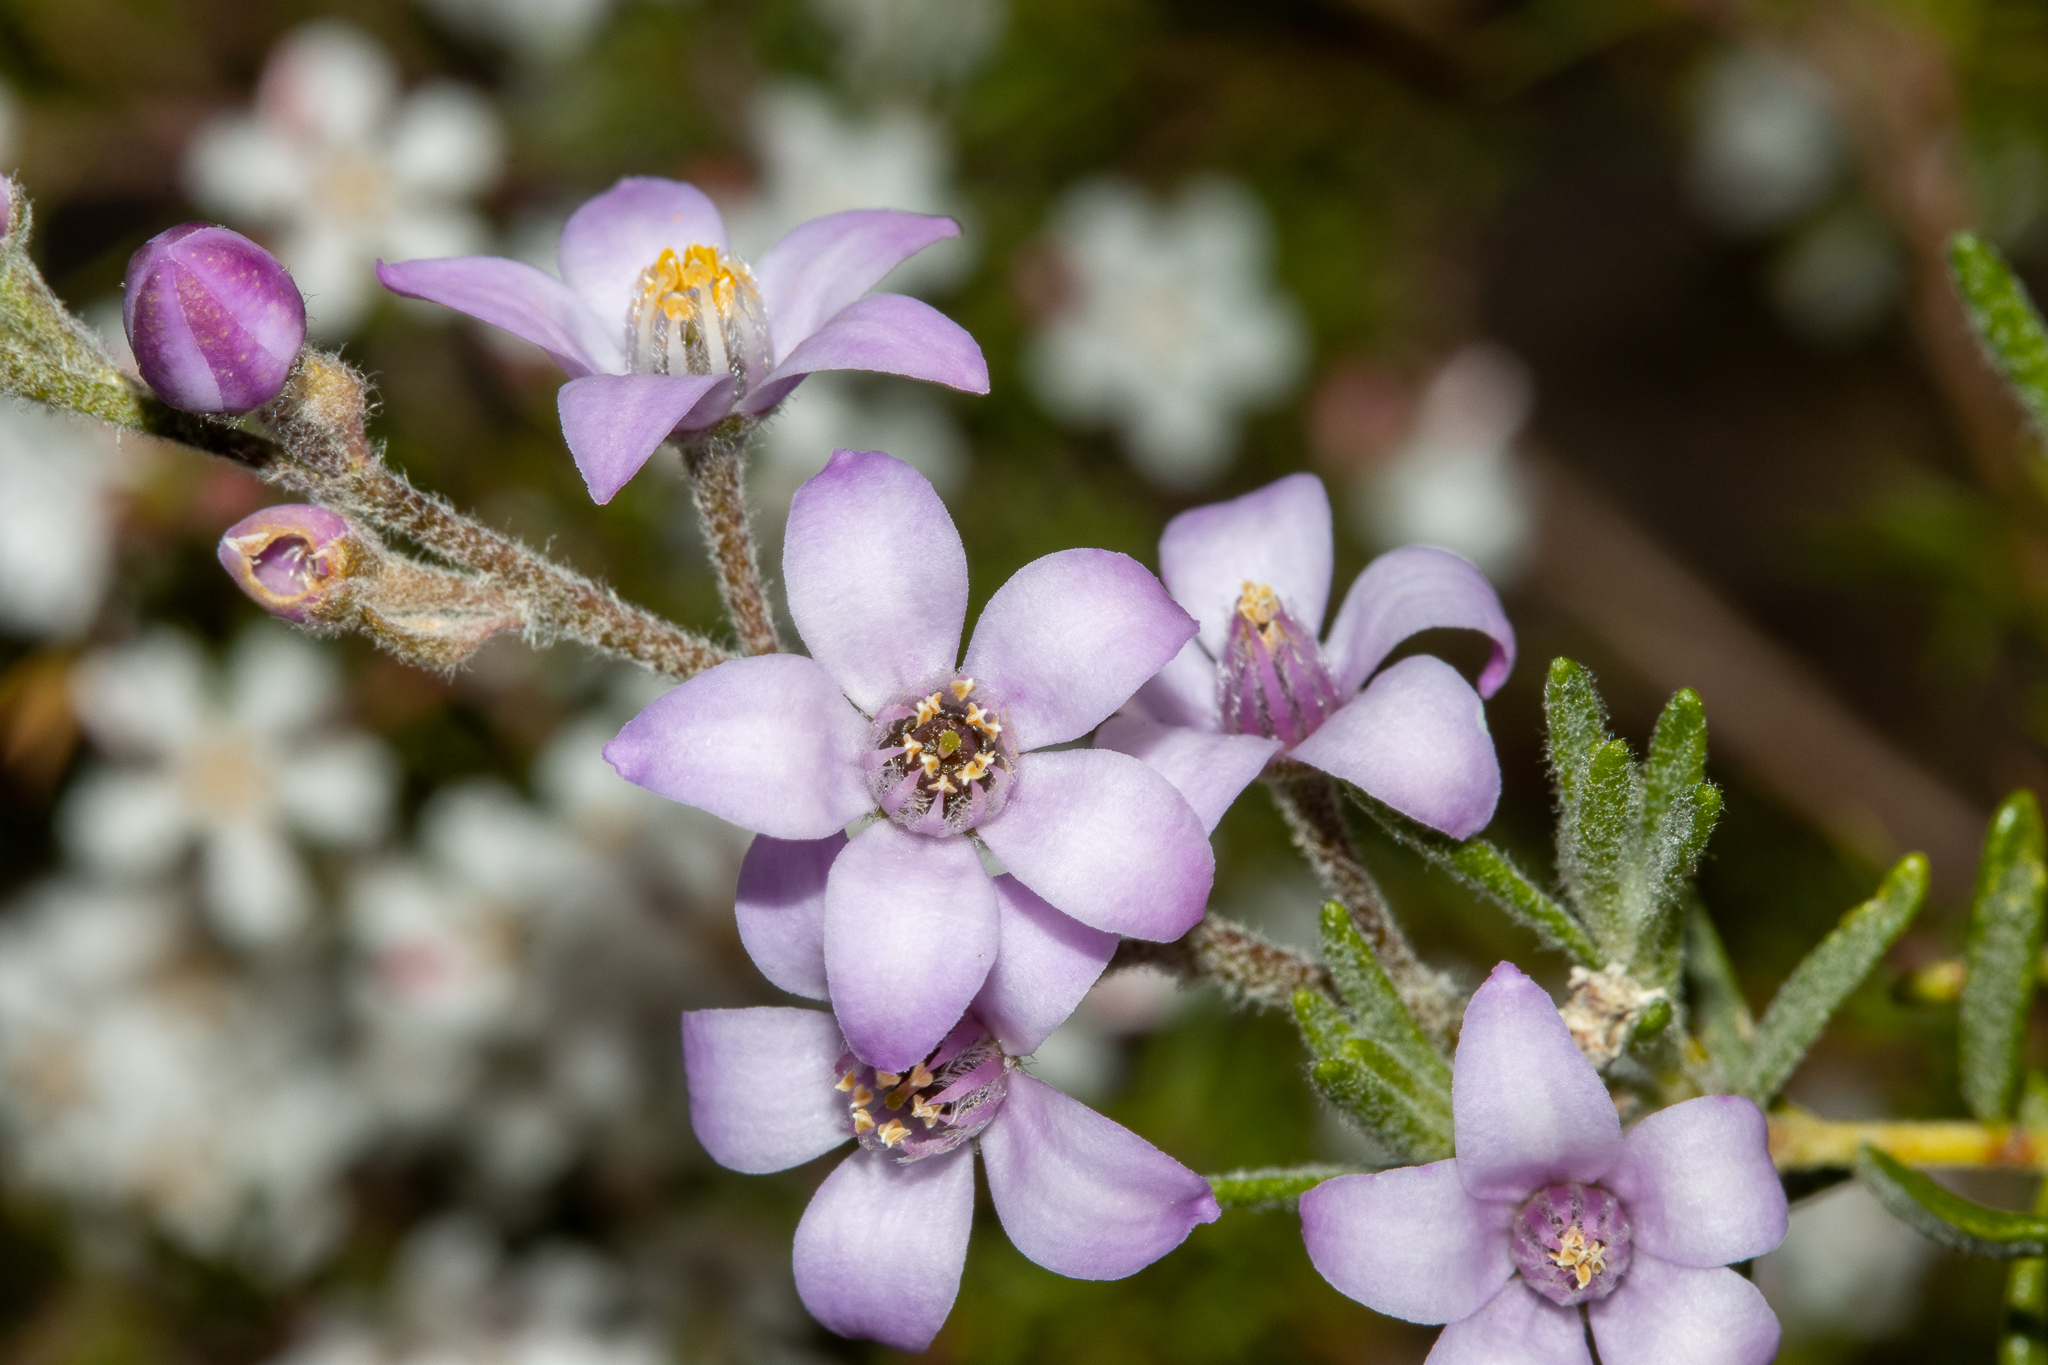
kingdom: Plantae
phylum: Tracheophyta
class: Magnoliopsida
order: Sapindales
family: Rutaceae
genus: Philotheca
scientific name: Philotheca spicata
